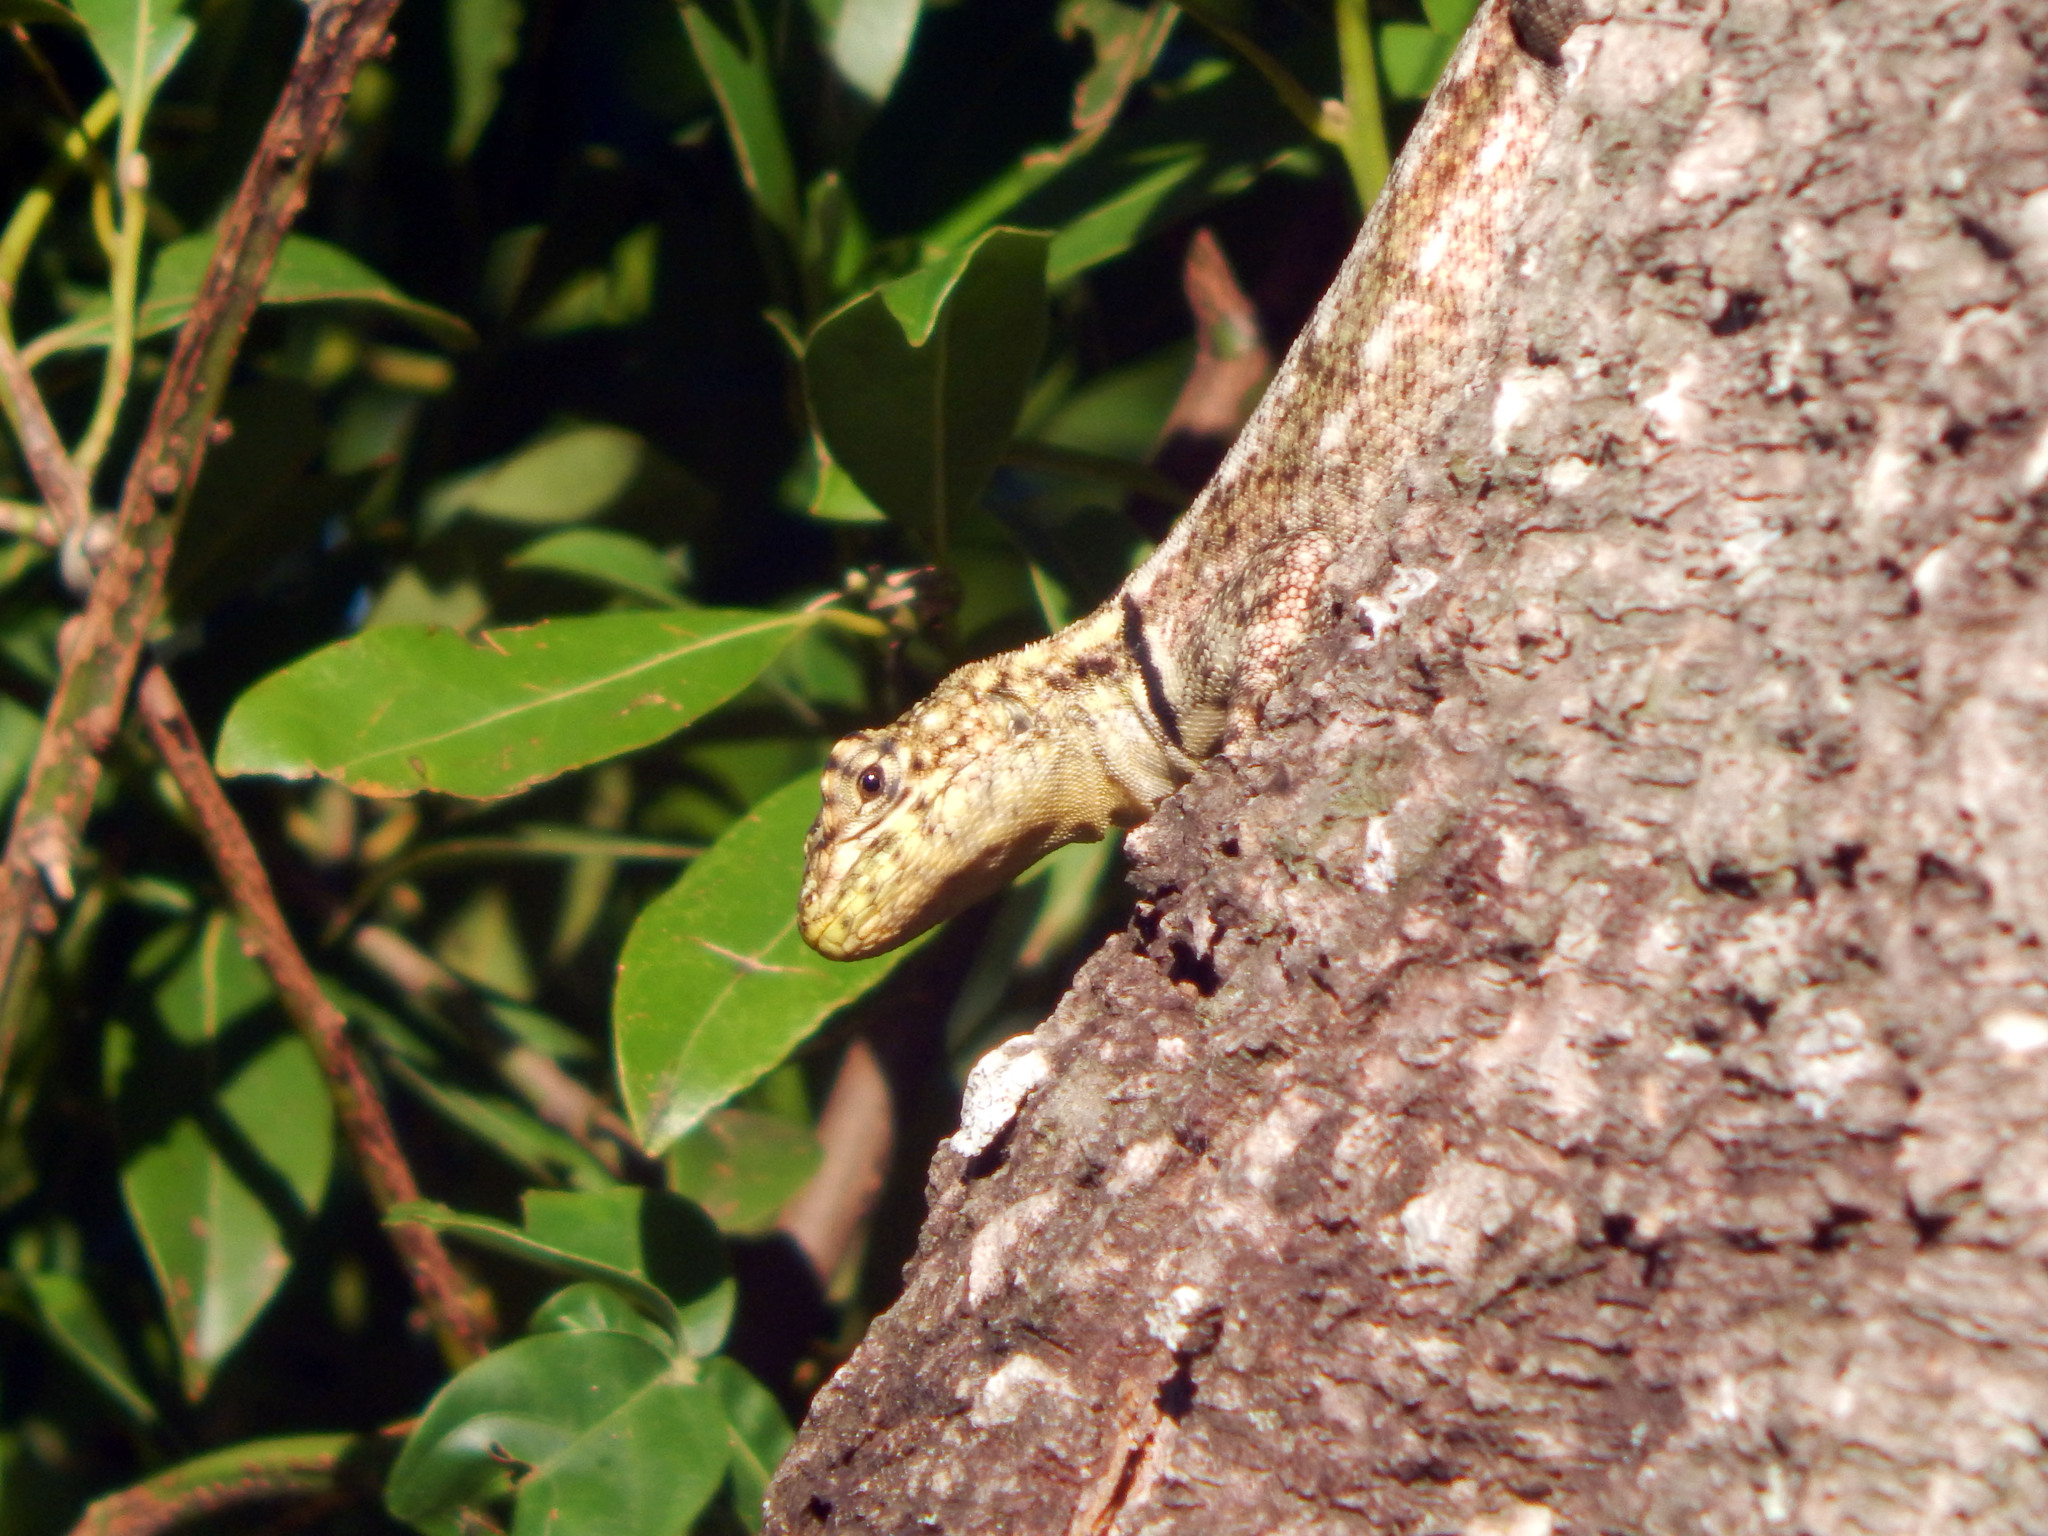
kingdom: Animalia
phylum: Chordata
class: Squamata
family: Tropiduridae
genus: Tropidurus
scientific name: Tropidurus lagunablanca
